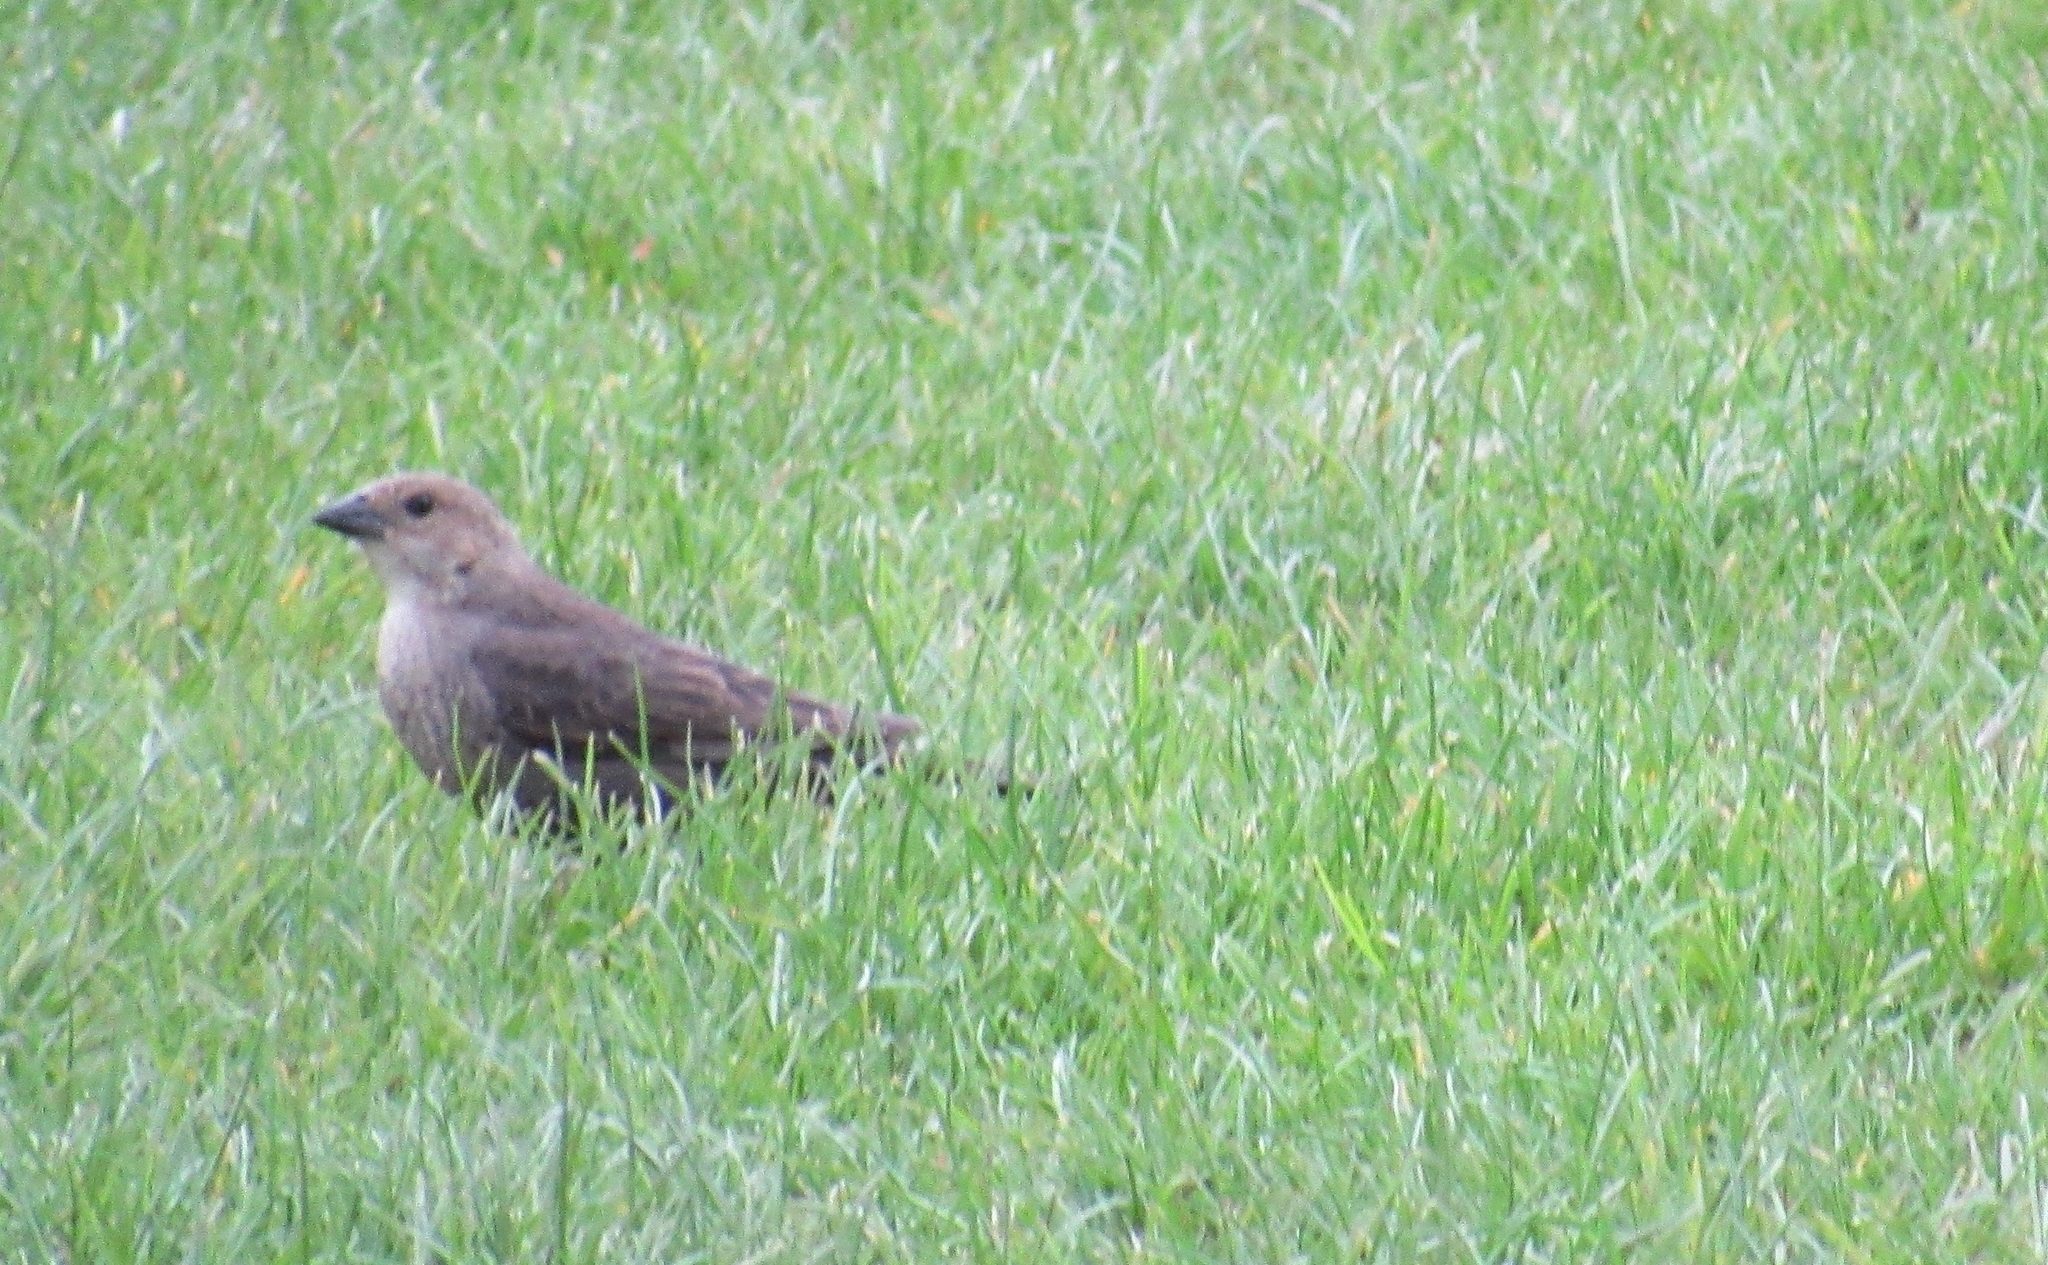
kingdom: Animalia
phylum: Chordata
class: Aves
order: Passeriformes
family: Icteridae
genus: Molothrus
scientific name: Molothrus ater
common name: Brown-headed cowbird
